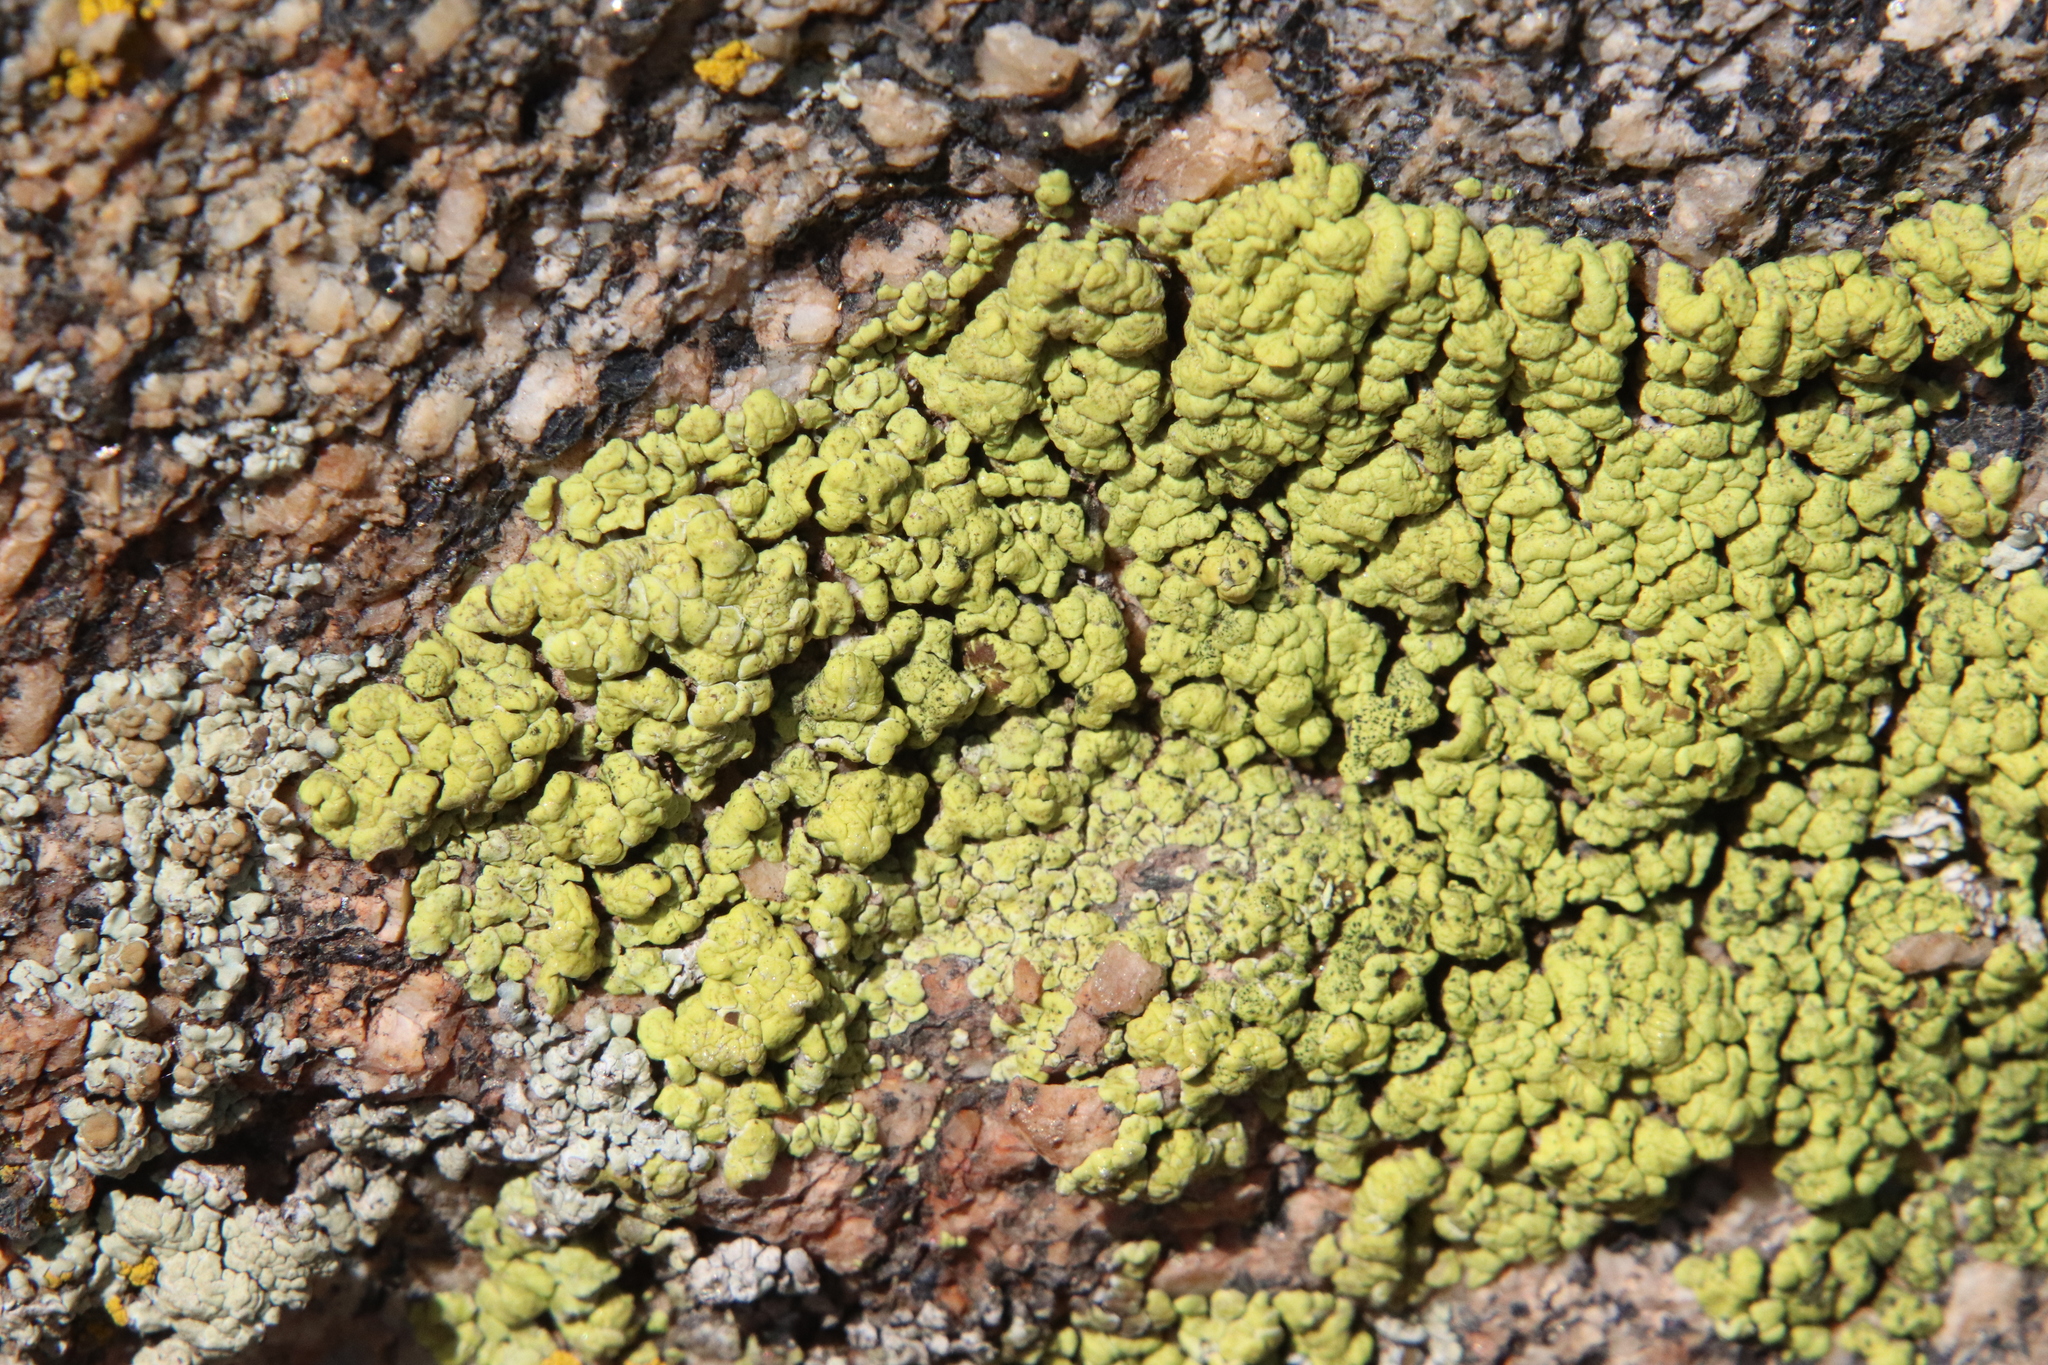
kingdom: Fungi
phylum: Ascomycota
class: Lecanoromycetes
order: Acarosporales
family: Acarosporaceae
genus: Acarospora
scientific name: Acarospora socialis
